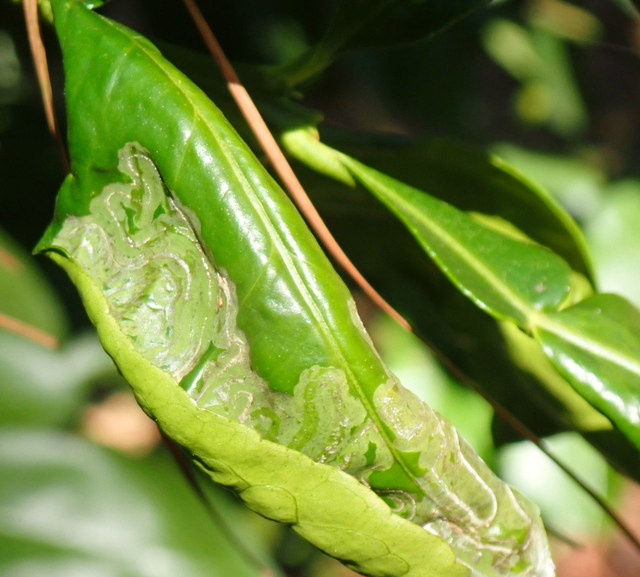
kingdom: Animalia
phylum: Arthropoda
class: Insecta
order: Lepidoptera
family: Gracillariidae
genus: Phyllocnistis
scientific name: Phyllocnistis citrella
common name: Citrus leafminer
